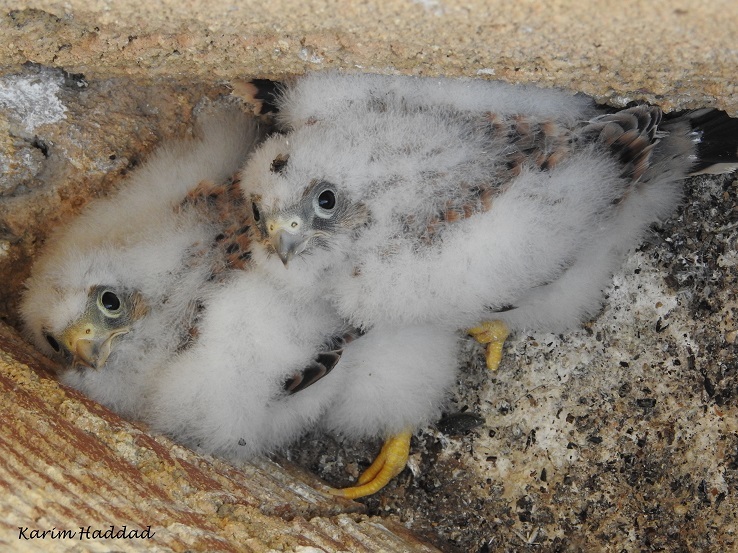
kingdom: Animalia
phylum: Chordata
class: Aves
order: Falconiformes
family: Falconidae
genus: Falco
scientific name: Falco naumanni
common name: Lesser kestrel
